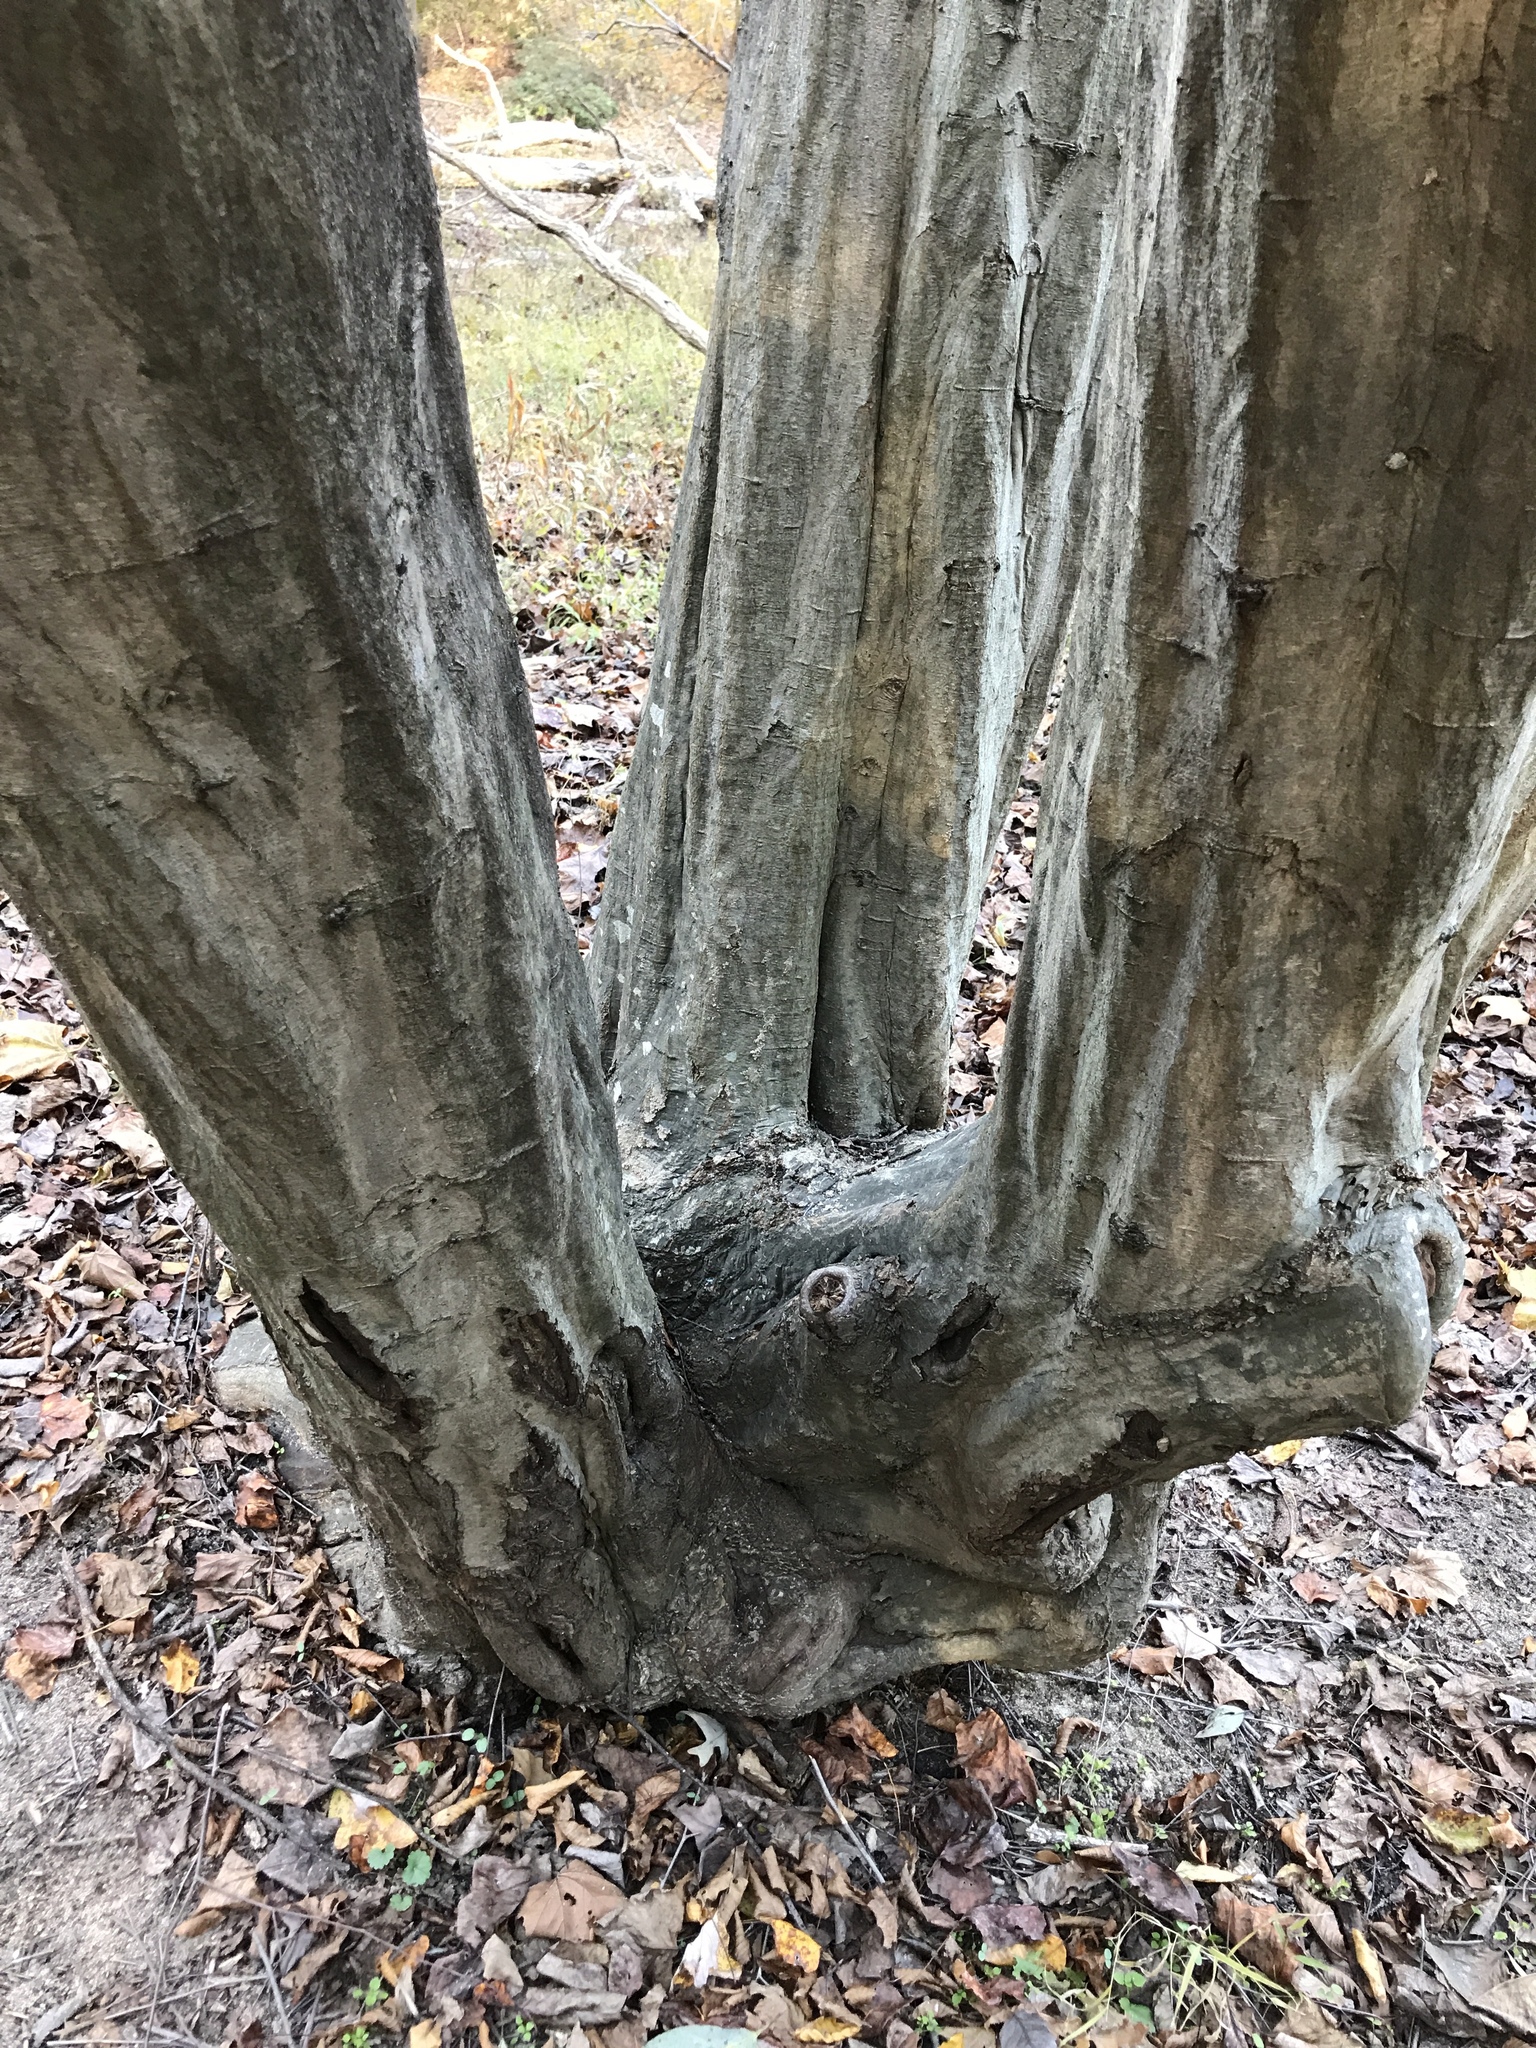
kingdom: Plantae
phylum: Tracheophyta
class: Magnoliopsida
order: Fagales
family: Betulaceae
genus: Carpinus
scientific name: Carpinus caroliniana
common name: American hornbeam
